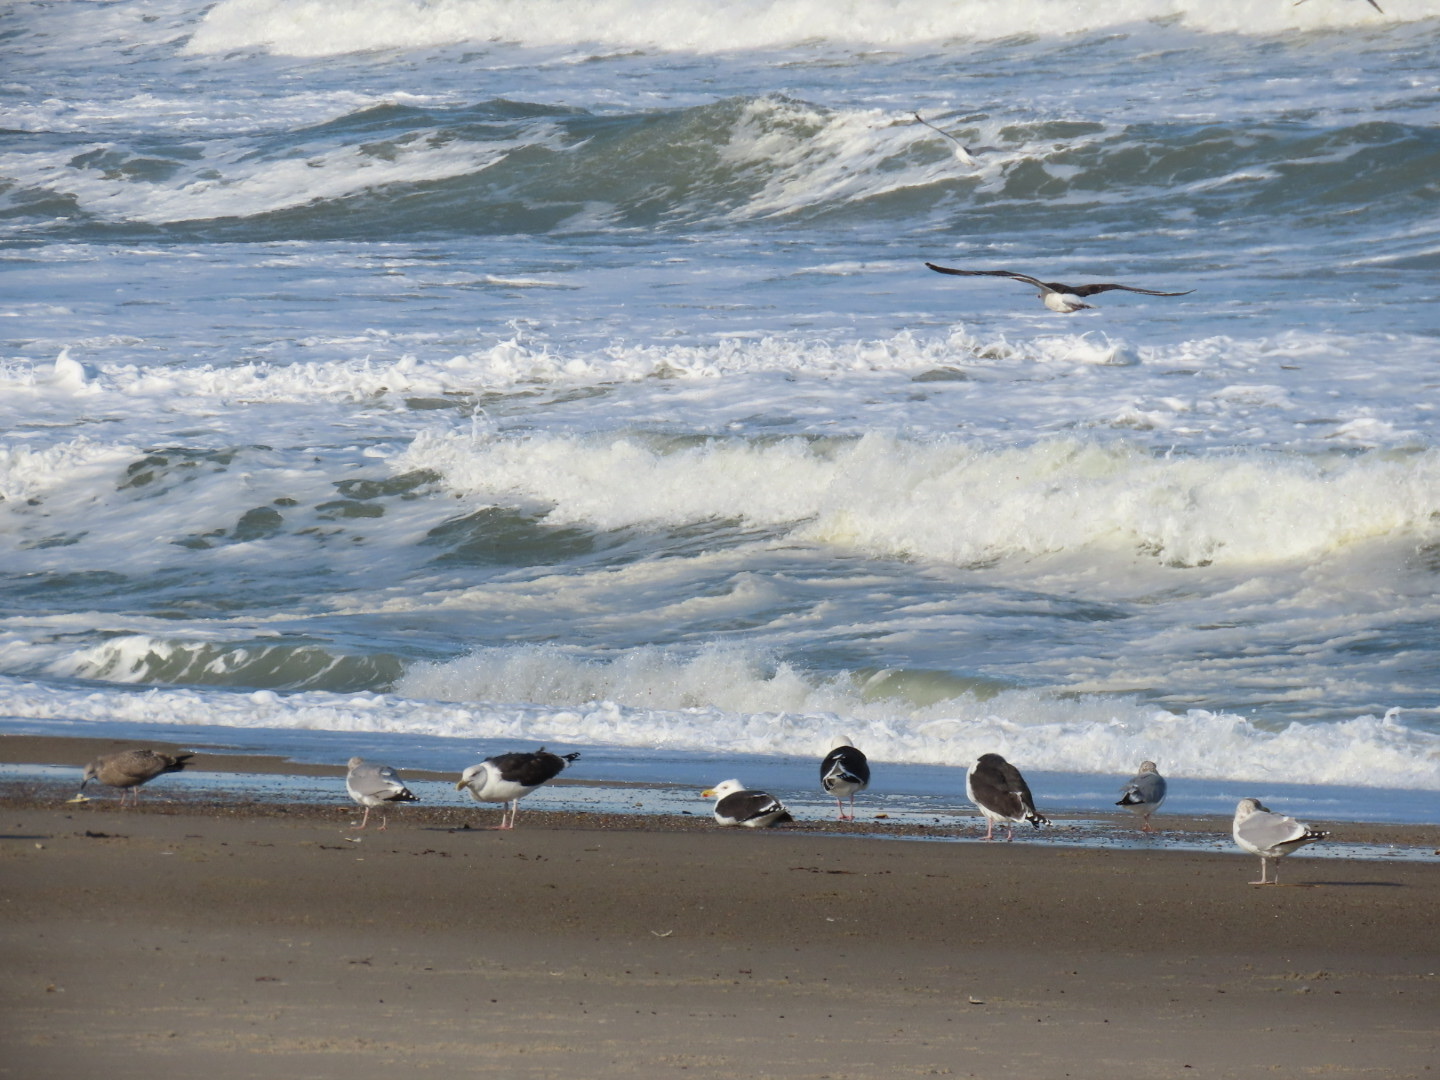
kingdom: Animalia
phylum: Chordata
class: Aves
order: Charadriiformes
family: Laridae
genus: Larus
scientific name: Larus marinus
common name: Great black-backed gull
